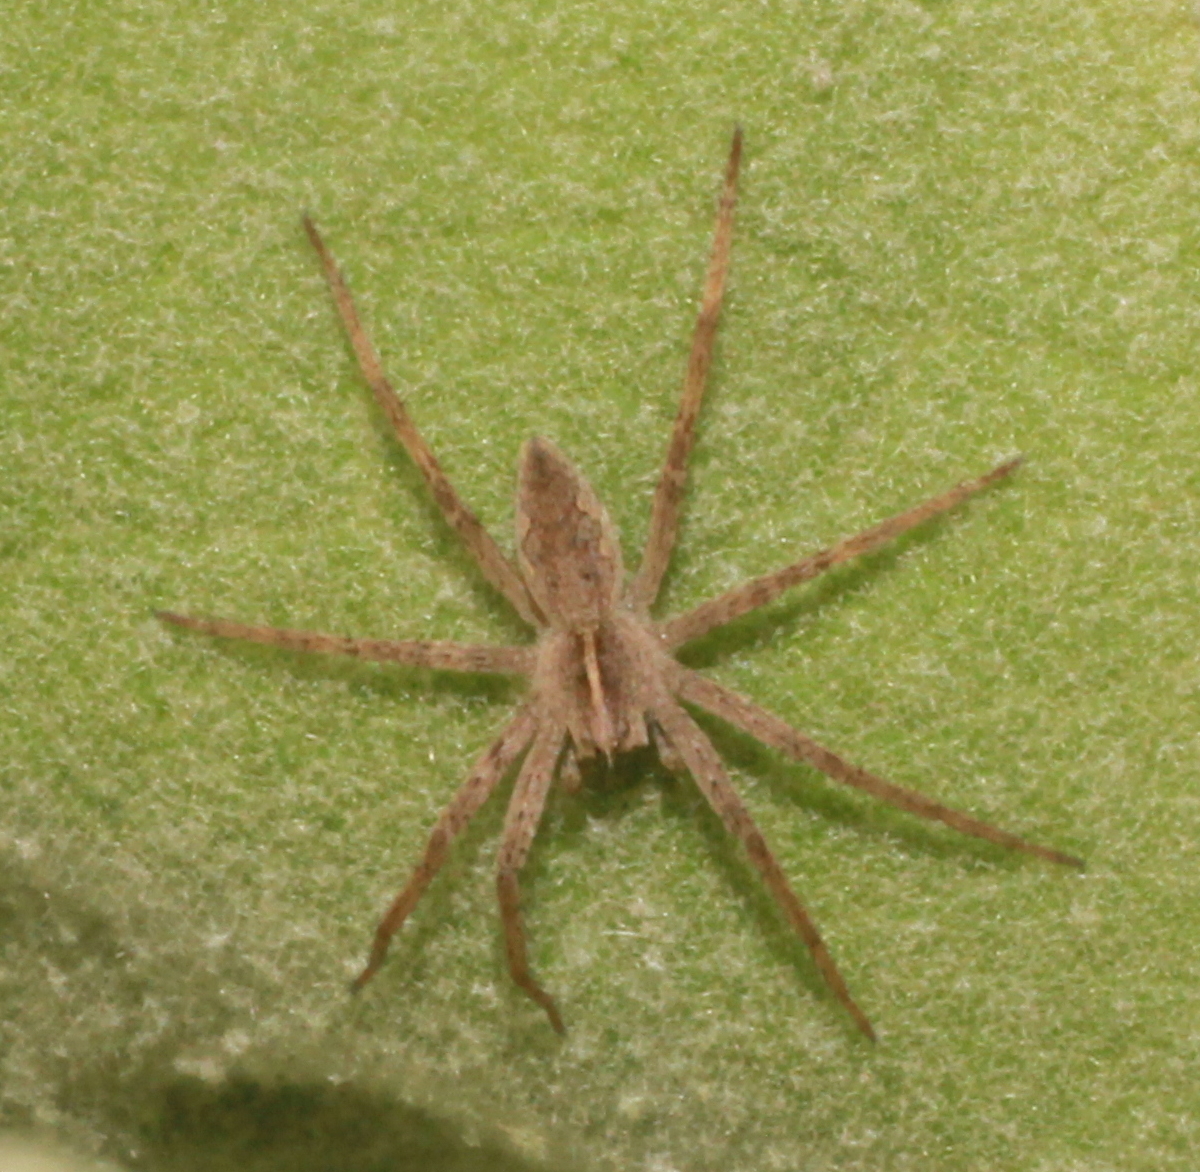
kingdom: Animalia
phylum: Arthropoda
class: Arachnida
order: Araneae
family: Pisauridae
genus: Pisaura
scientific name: Pisaura mirabilis
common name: Tent spider
